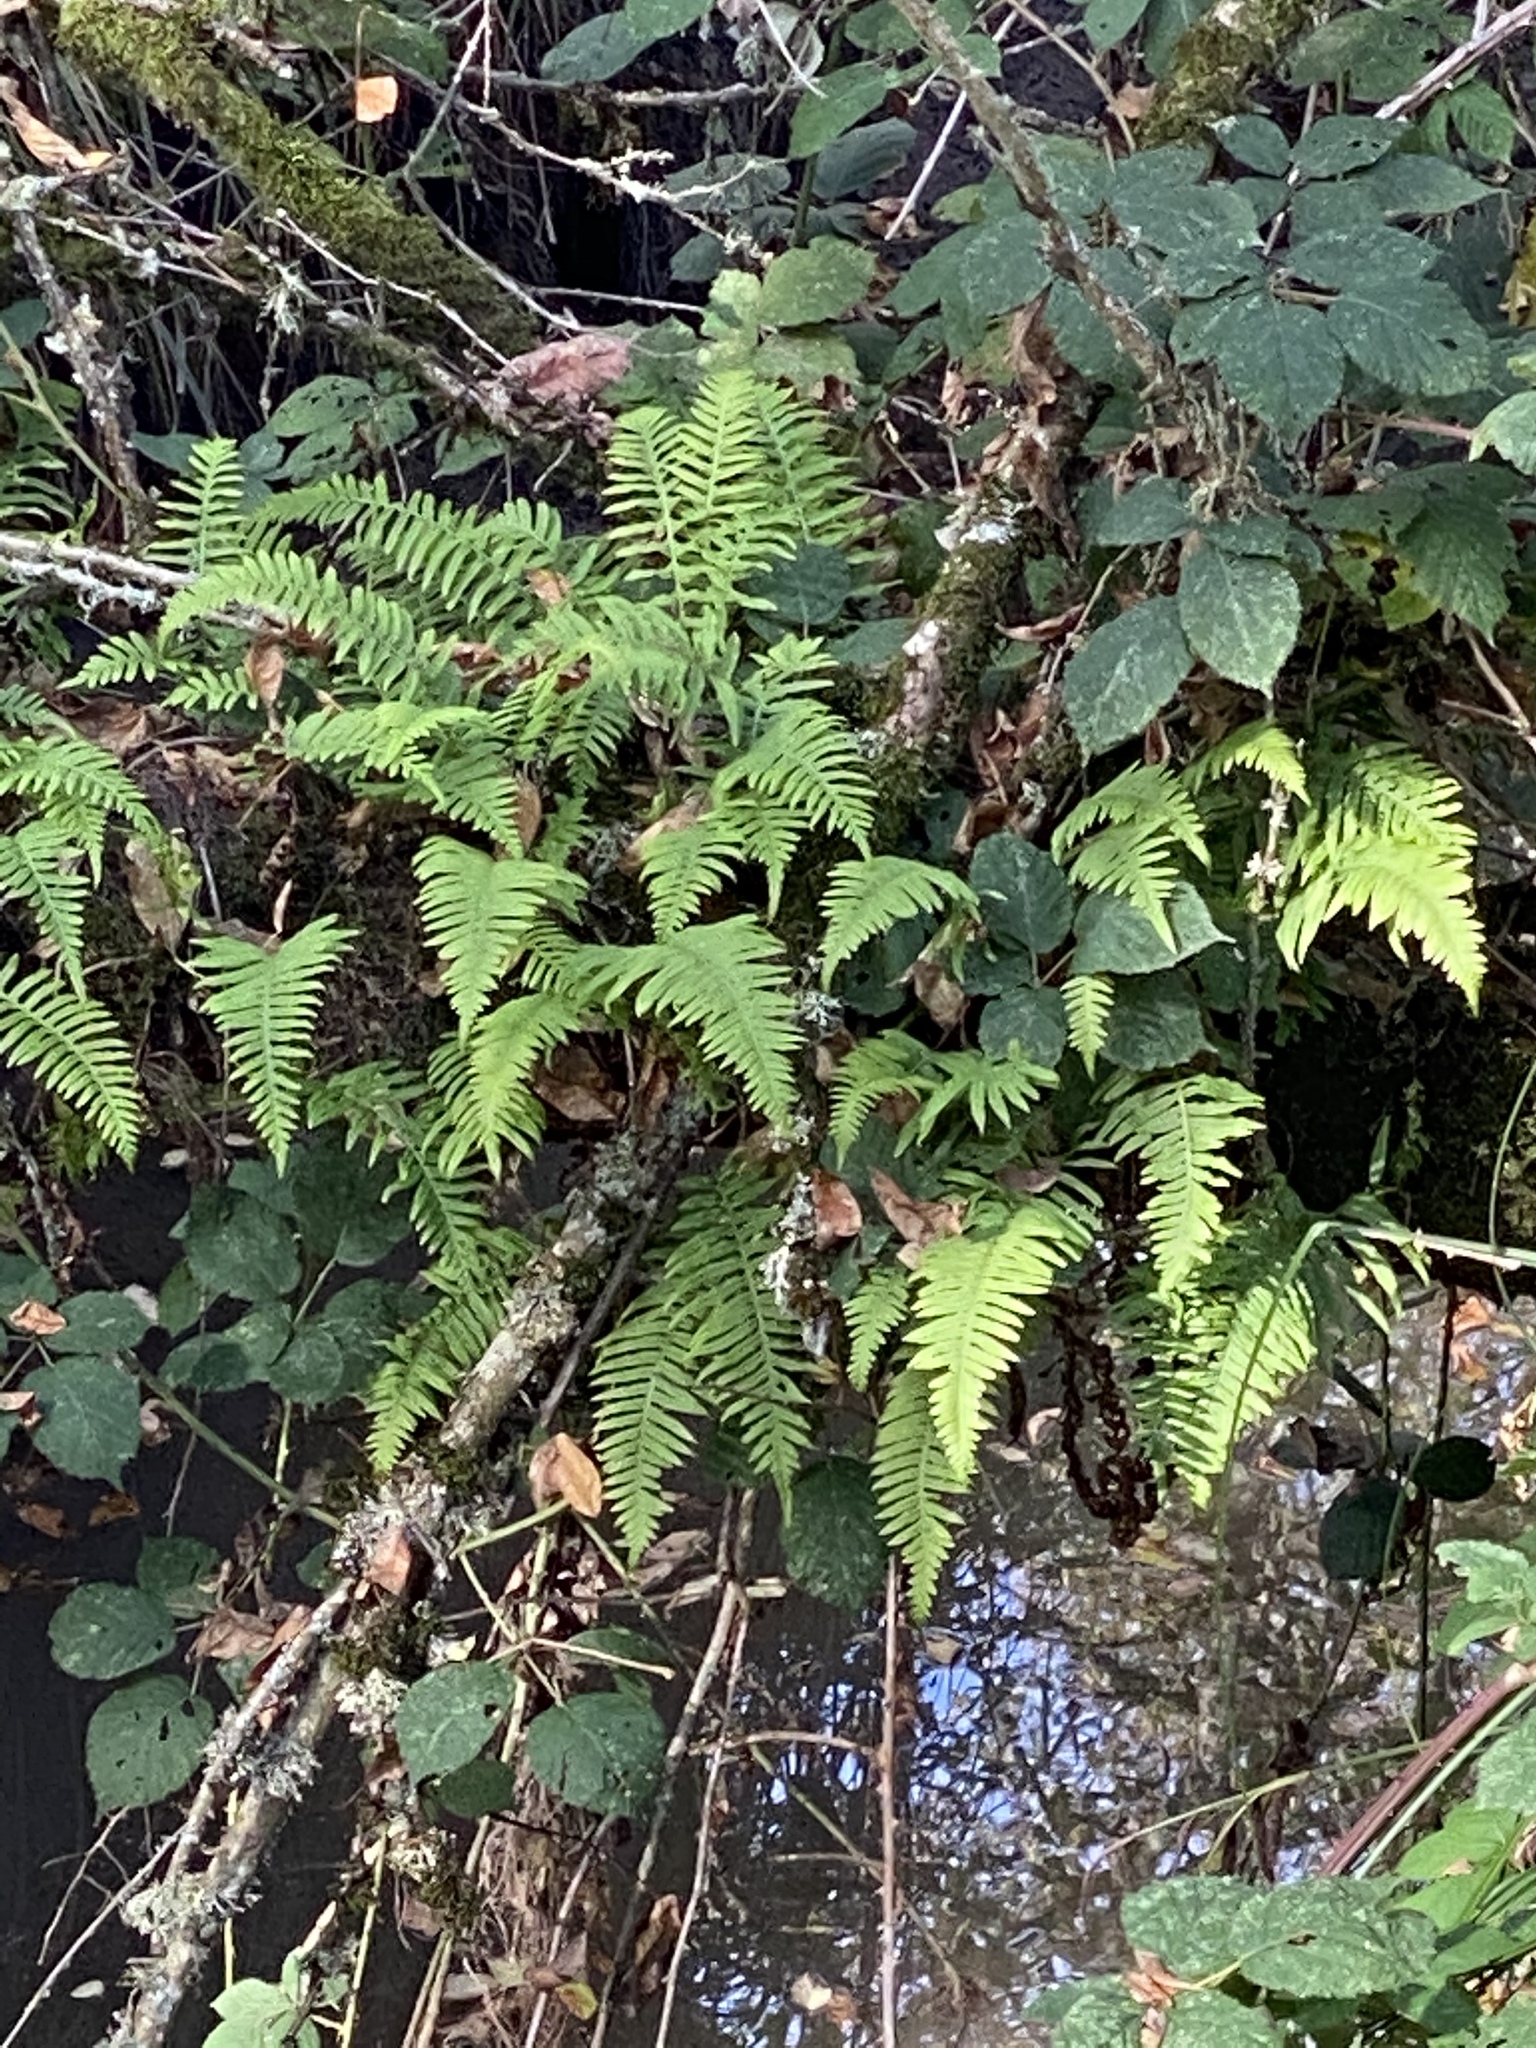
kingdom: Plantae
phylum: Tracheophyta
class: Polypodiopsida
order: Polypodiales
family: Polypodiaceae
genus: Polypodium
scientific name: Polypodium glycyrrhiza
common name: Licorice fern
